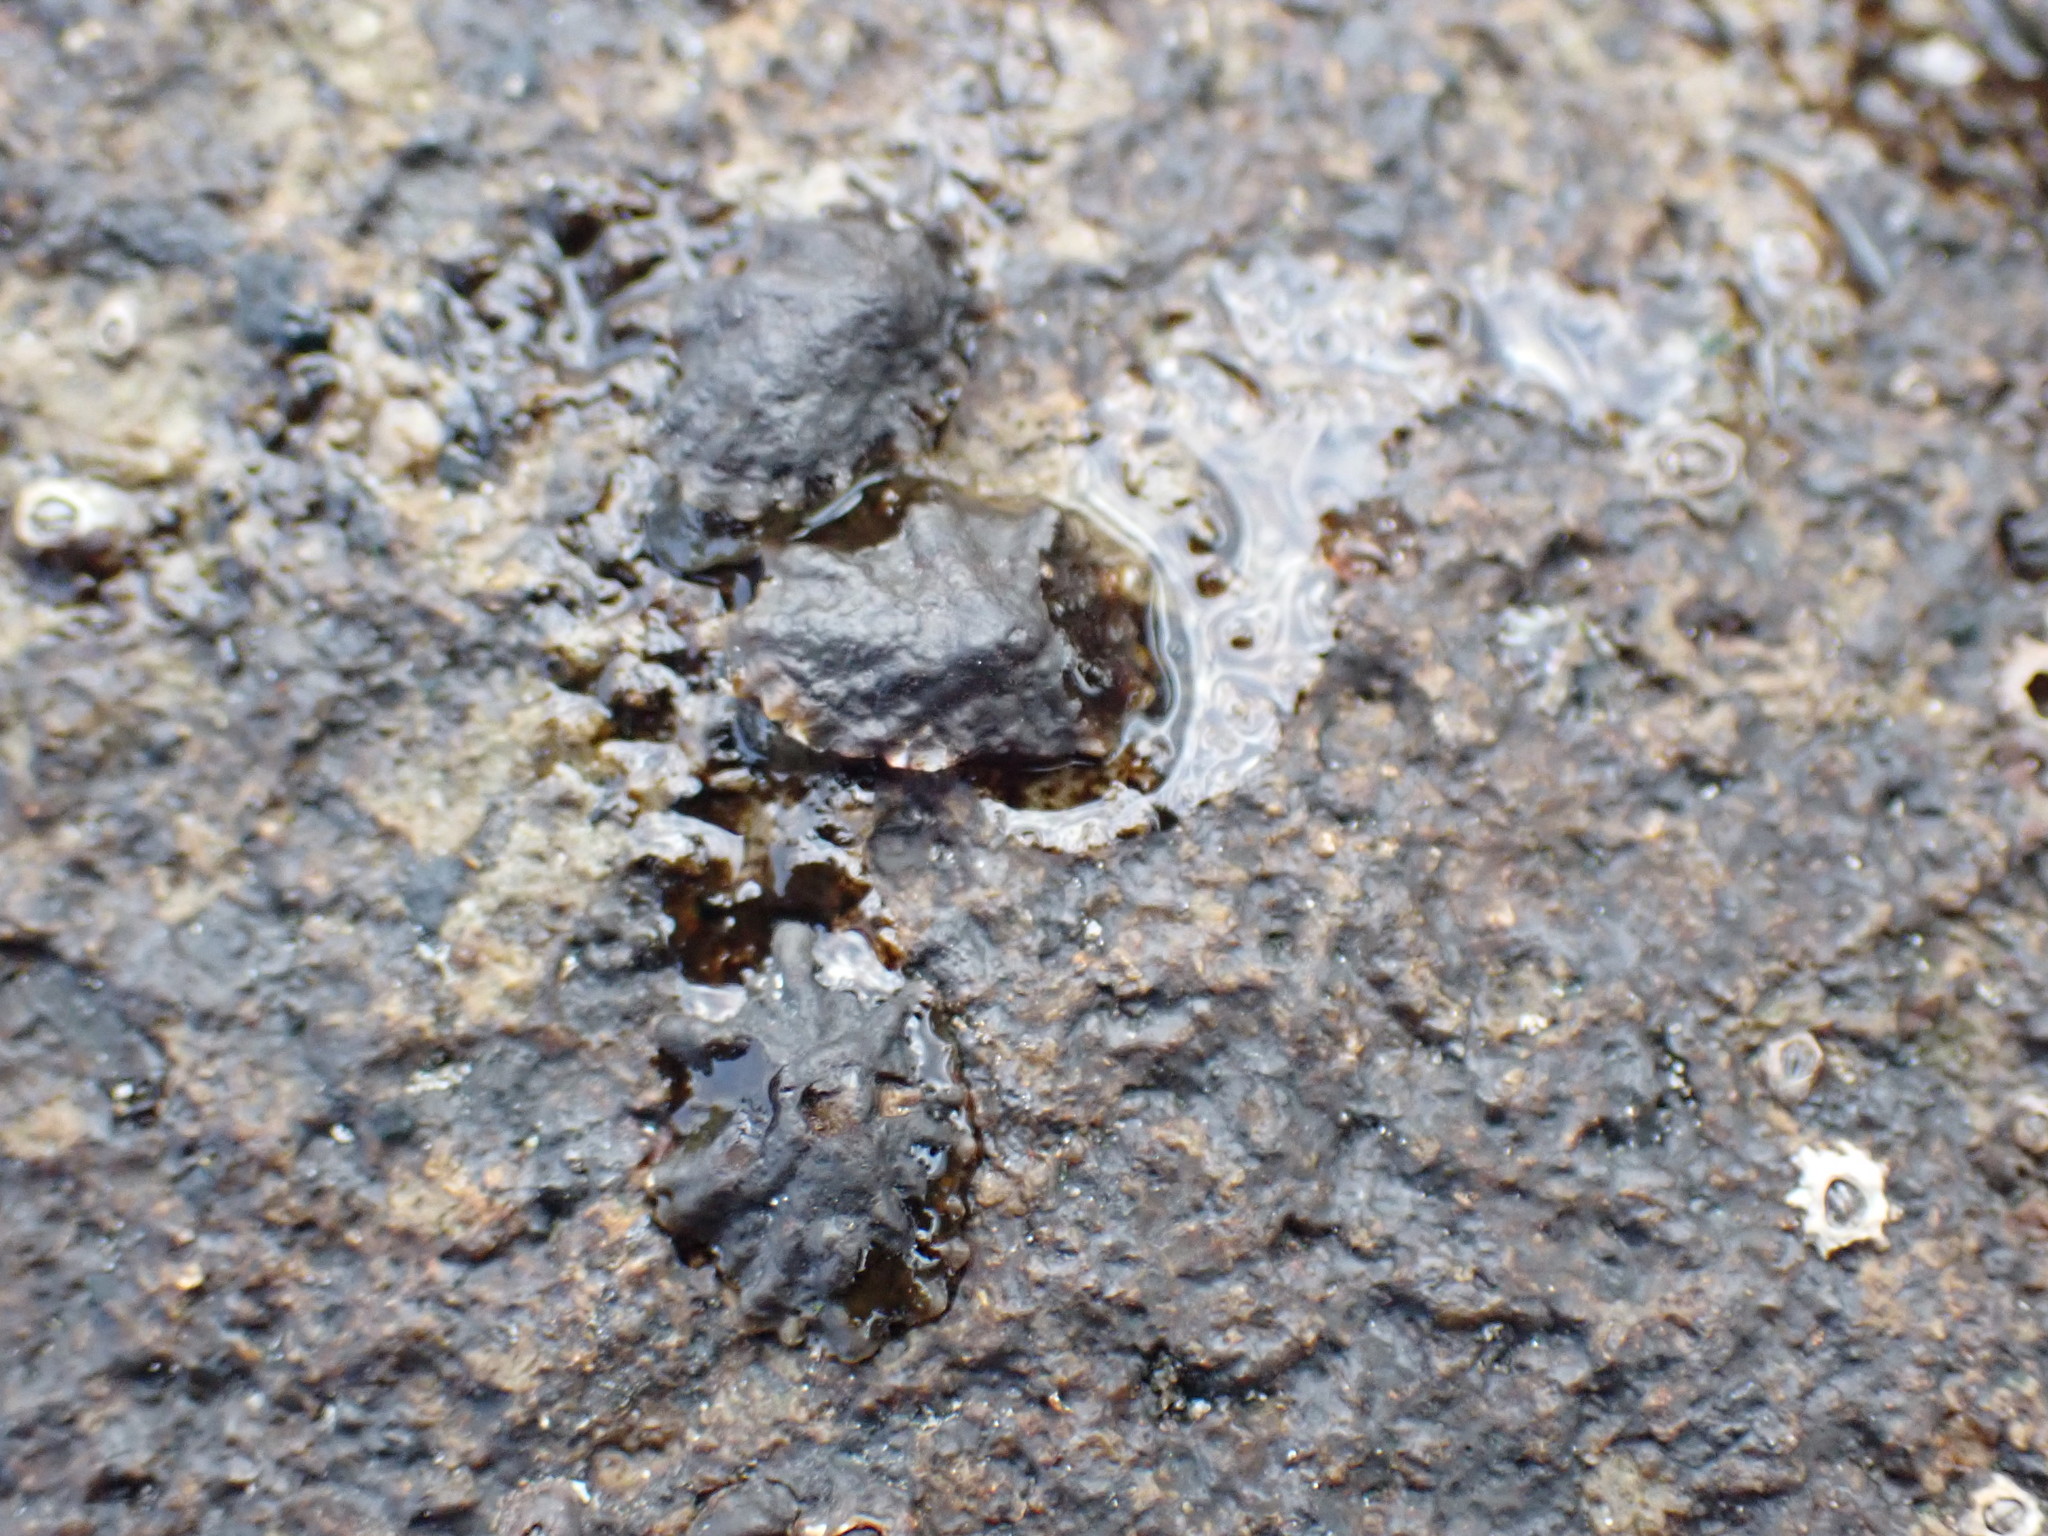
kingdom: Animalia
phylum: Mollusca
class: Gastropoda
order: Siphonariida
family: Siphonariidae
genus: Siphonaria
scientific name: Siphonaria australis
